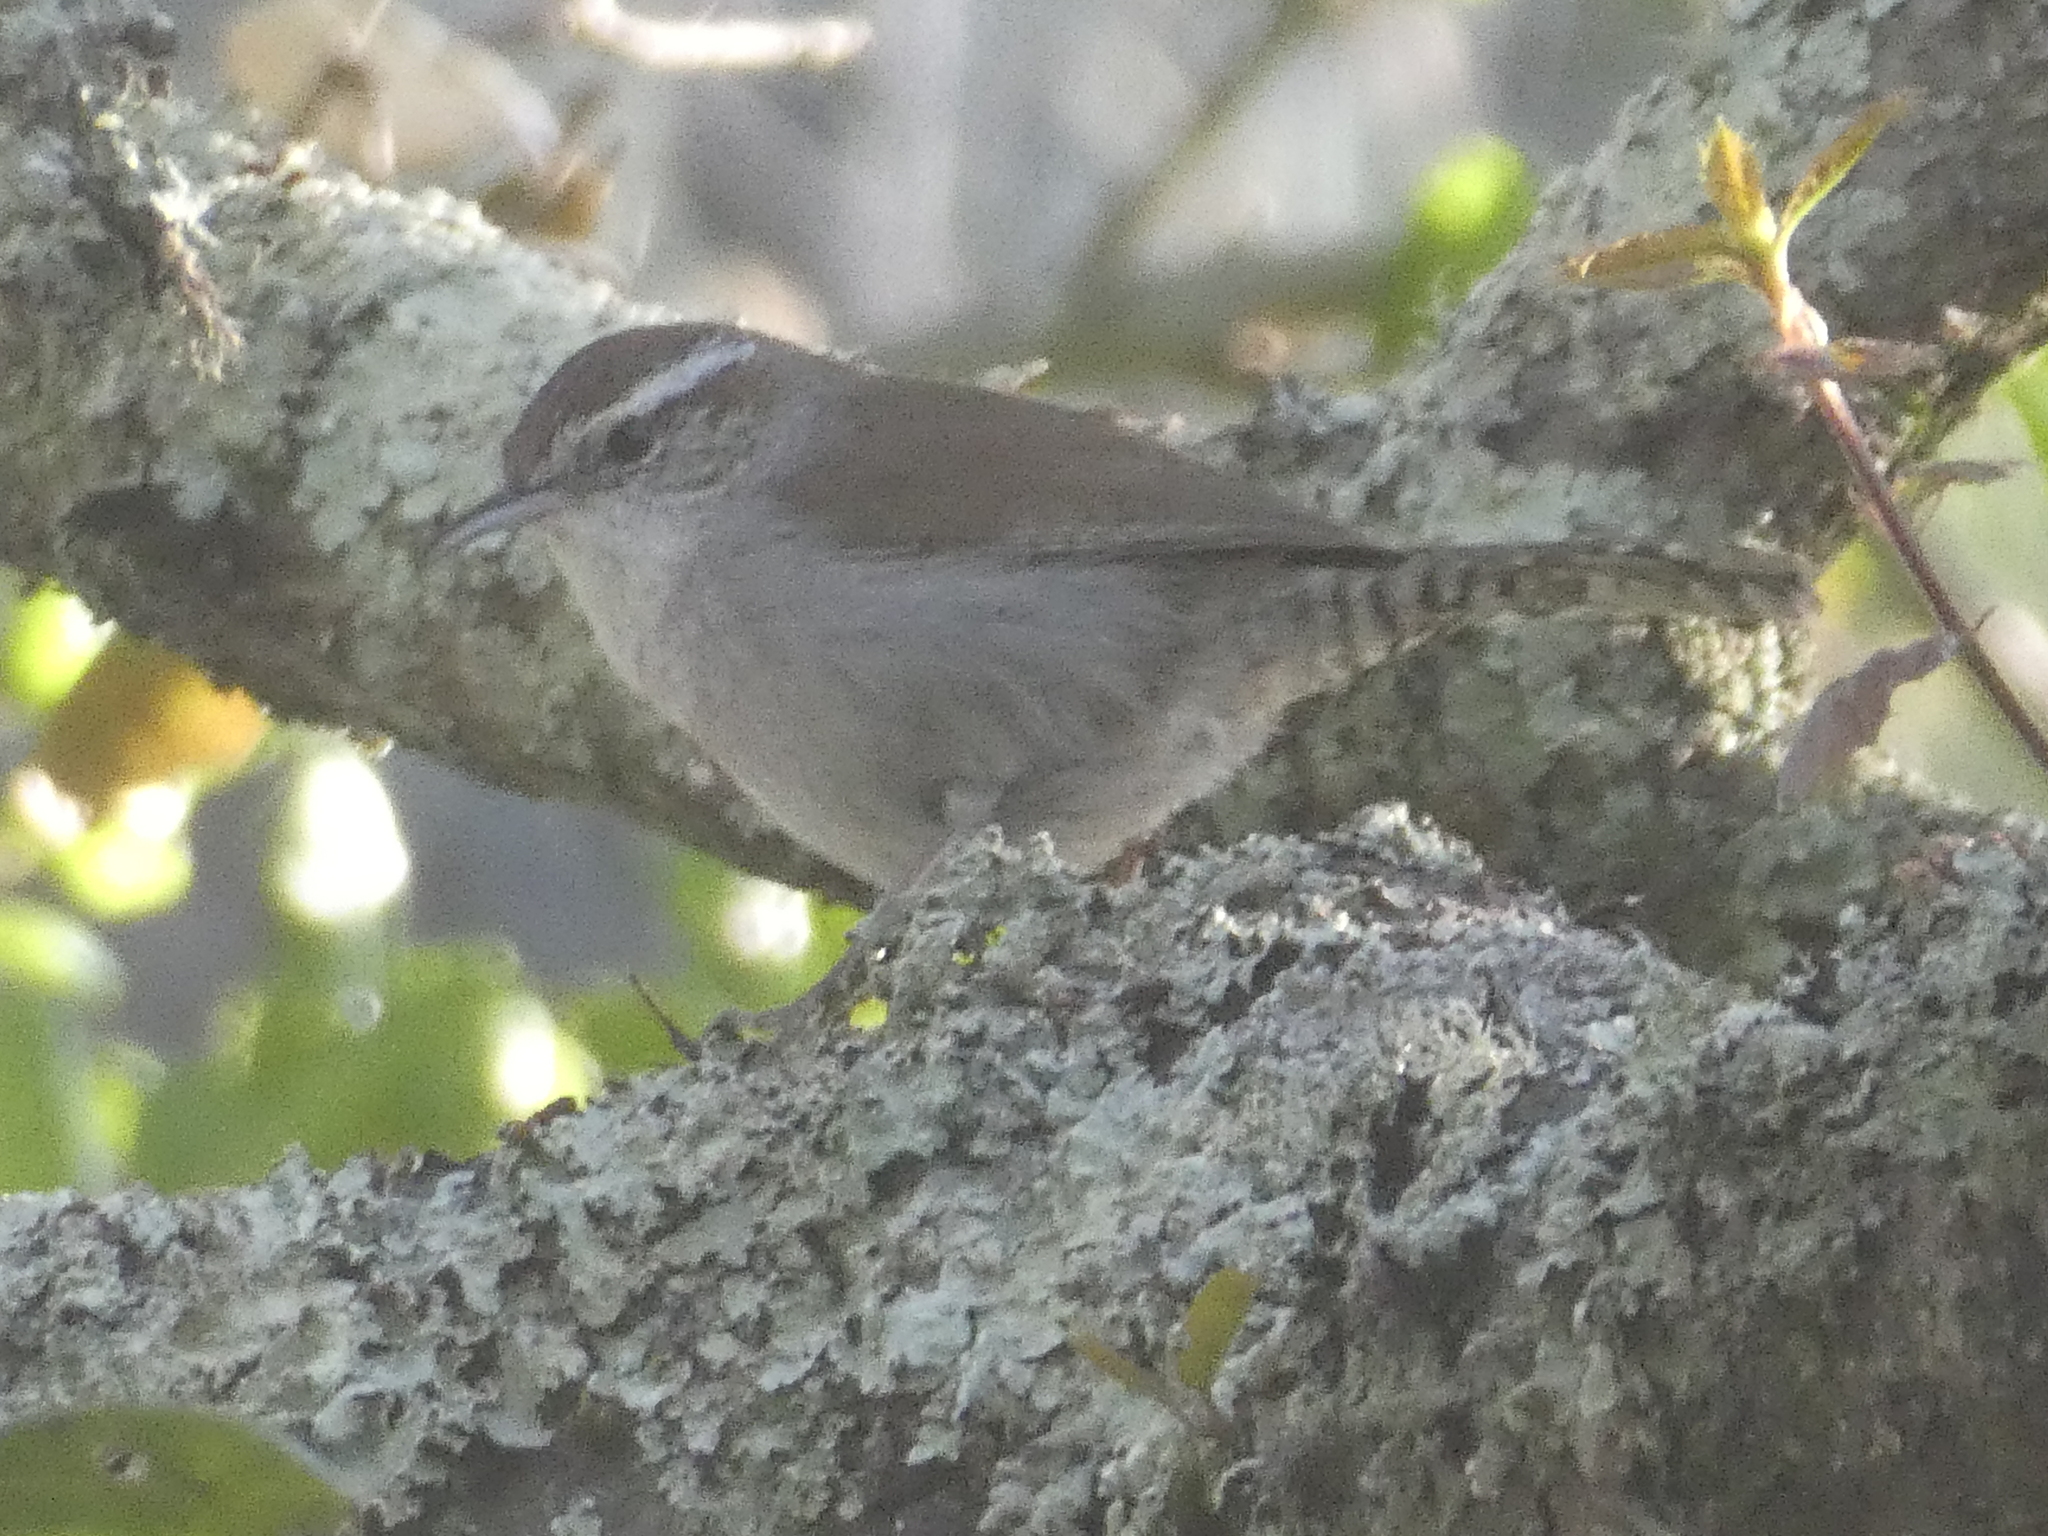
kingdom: Animalia
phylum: Chordata
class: Aves
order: Passeriformes
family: Troglodytidae
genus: Thryomanes
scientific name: Thryomanes bewickii
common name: Bewick's wren
